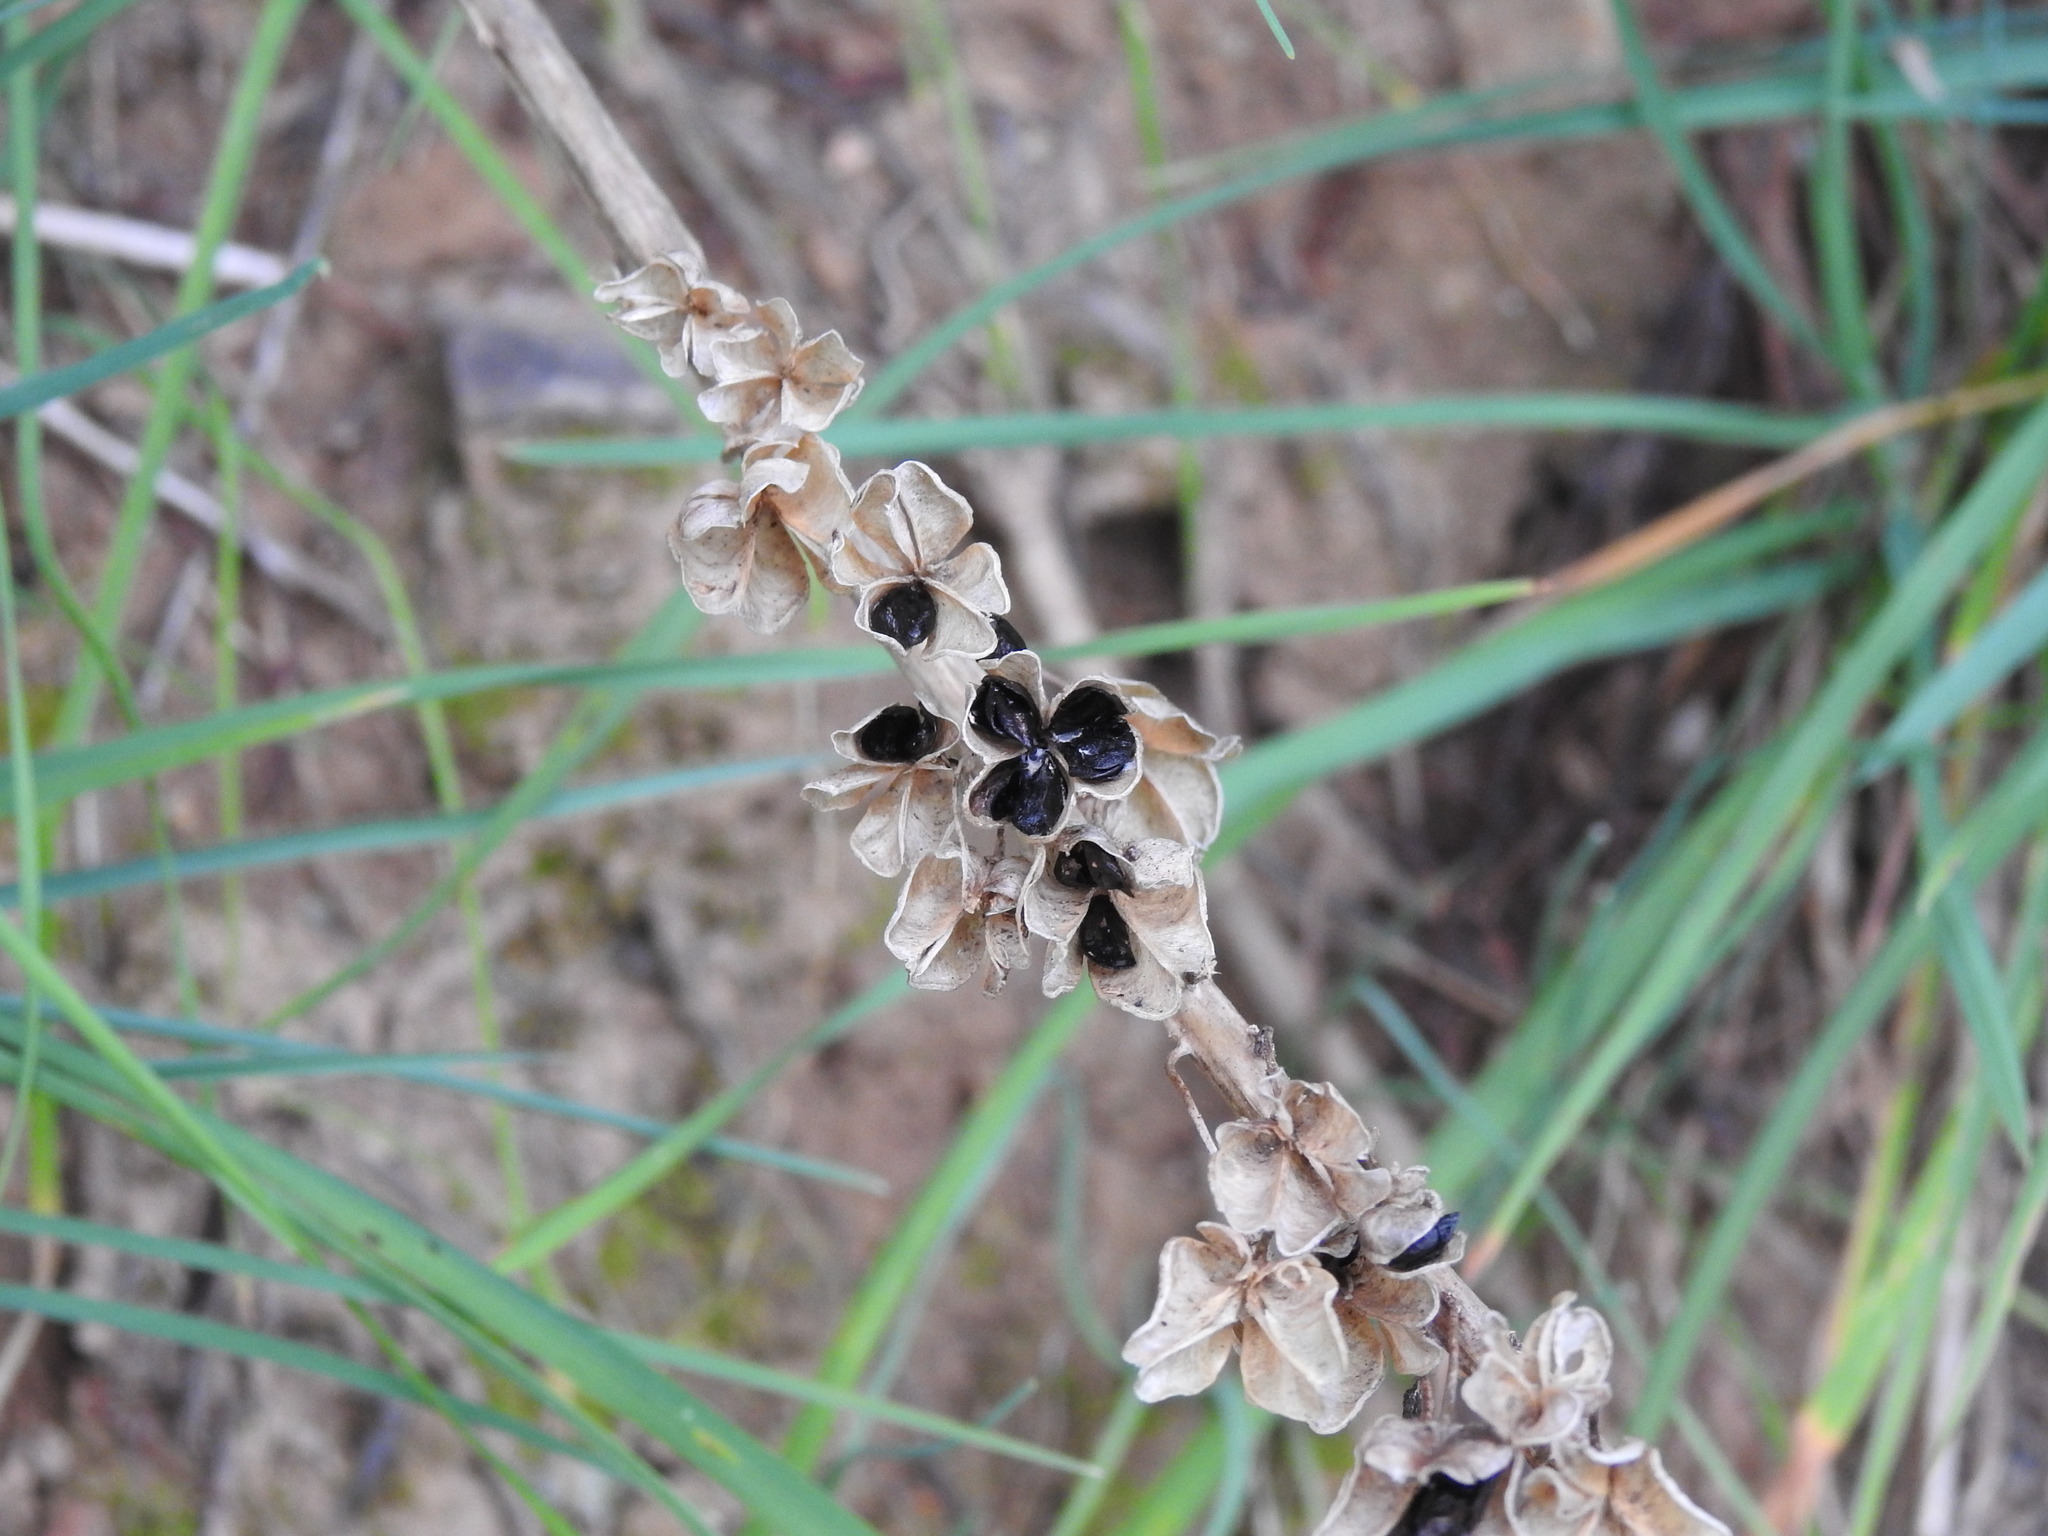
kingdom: Plantae
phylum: Tracheophyta
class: Liliopsida
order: Asparagales
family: Asparagaceae
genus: Drimia
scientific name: Drimia maritima
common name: Maritime squill
